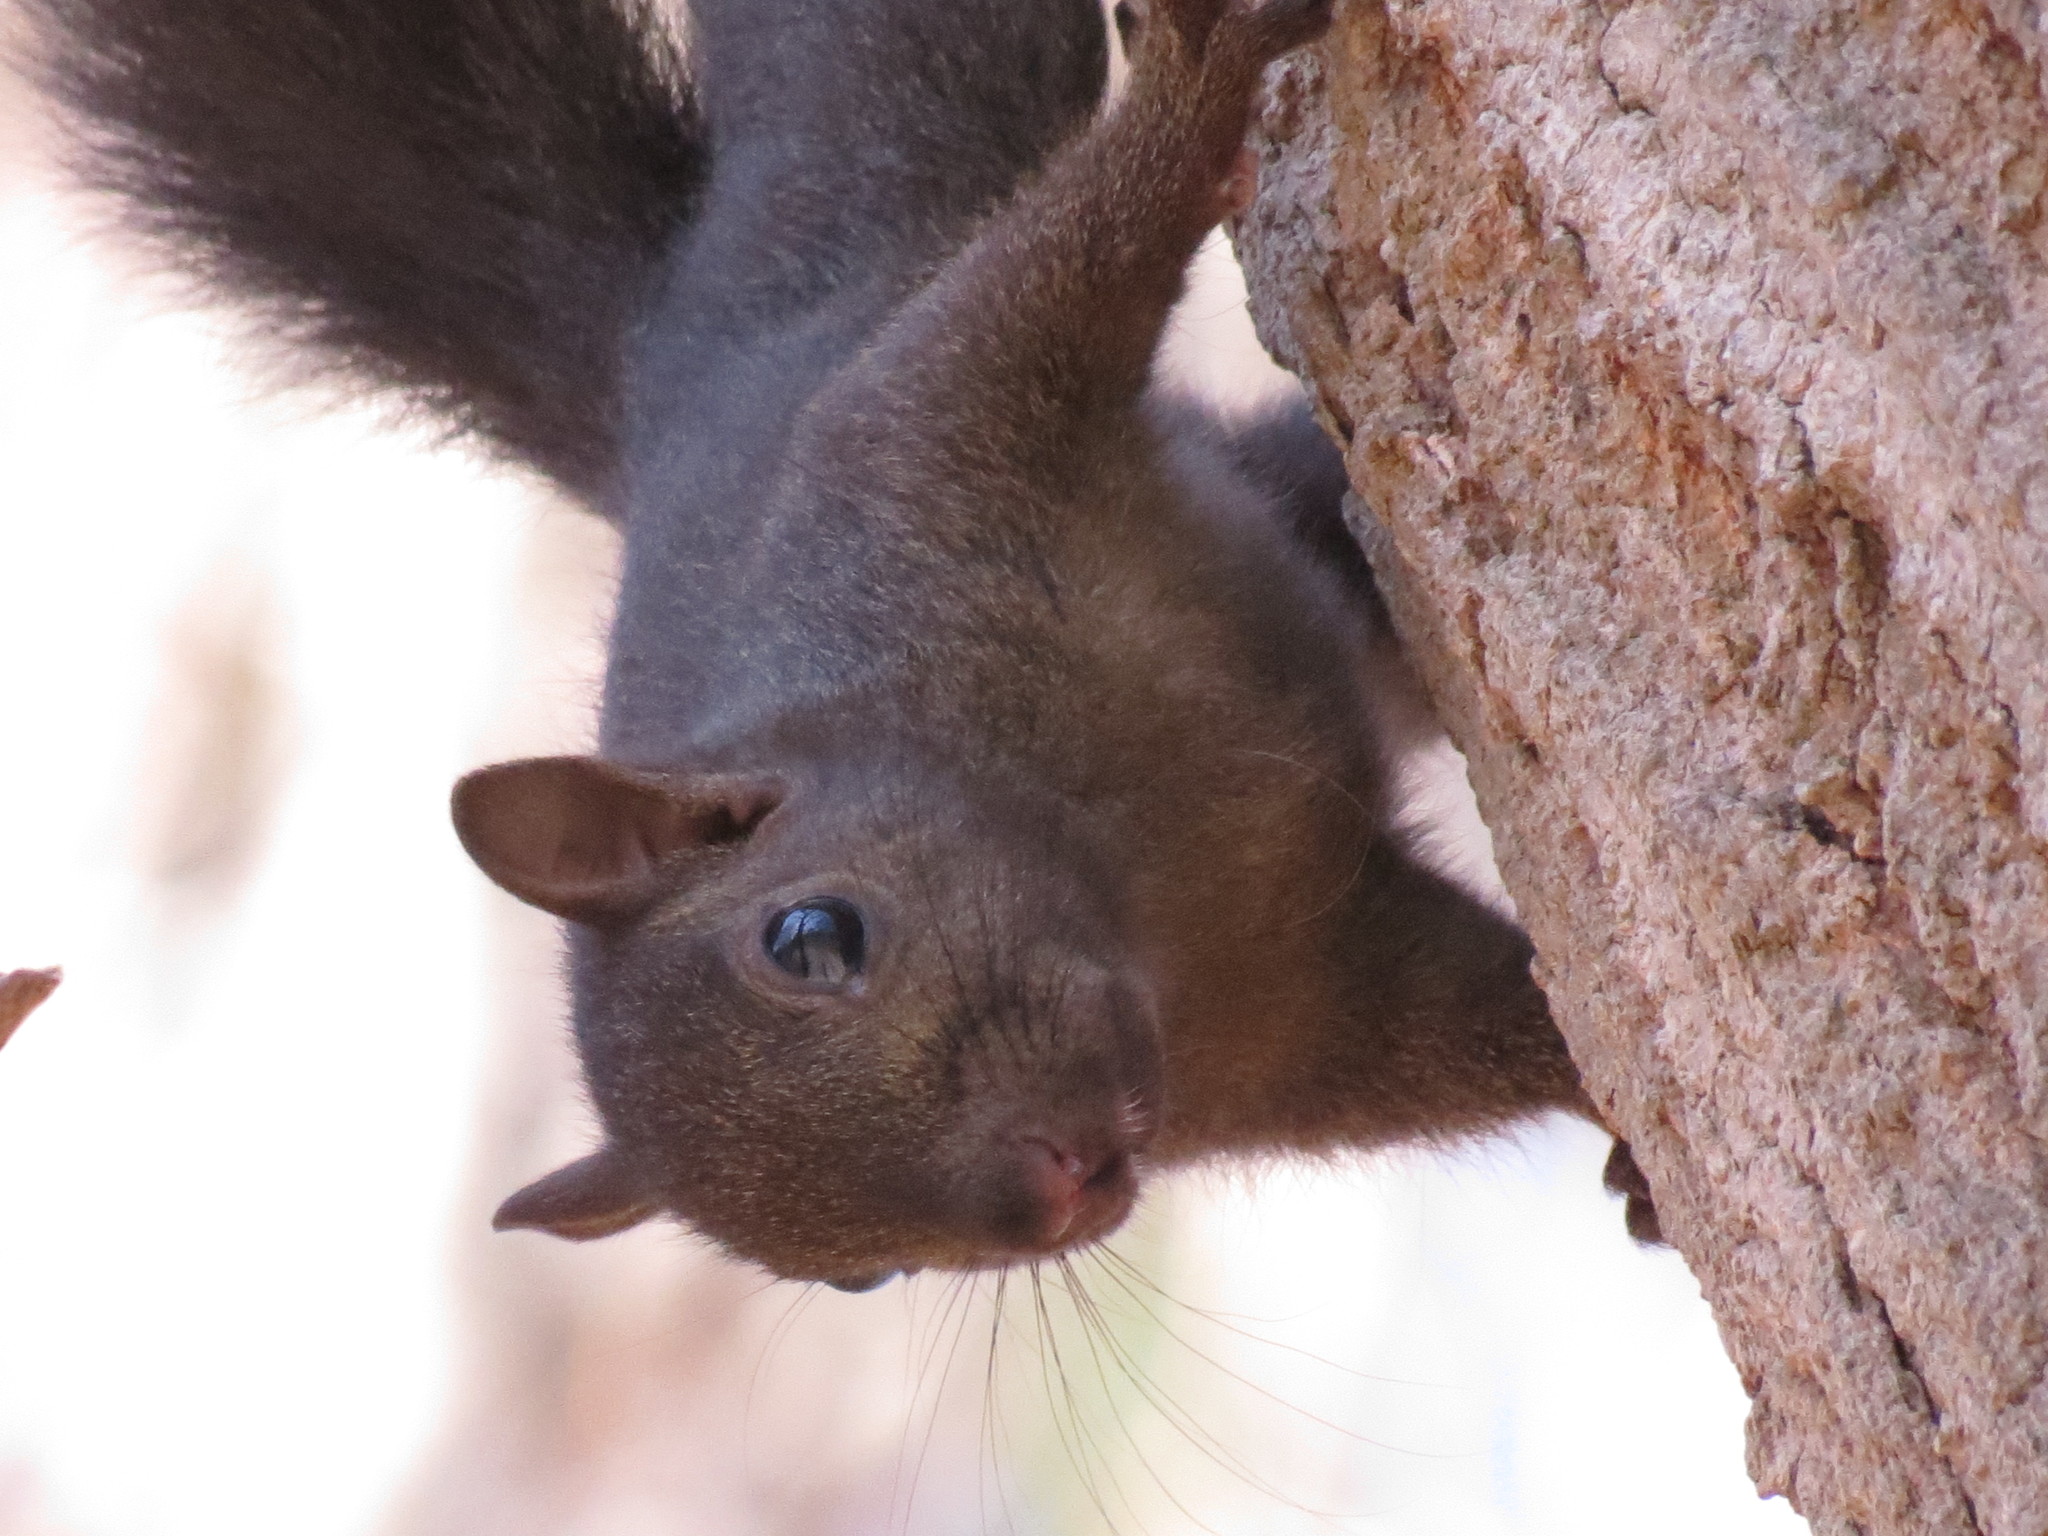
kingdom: Animalia
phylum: Chordata
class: Mammalia
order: Rodentia
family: Sciuridae
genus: Sciurus
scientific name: Sciurus carolinensis
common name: Eastern gray squirrel
